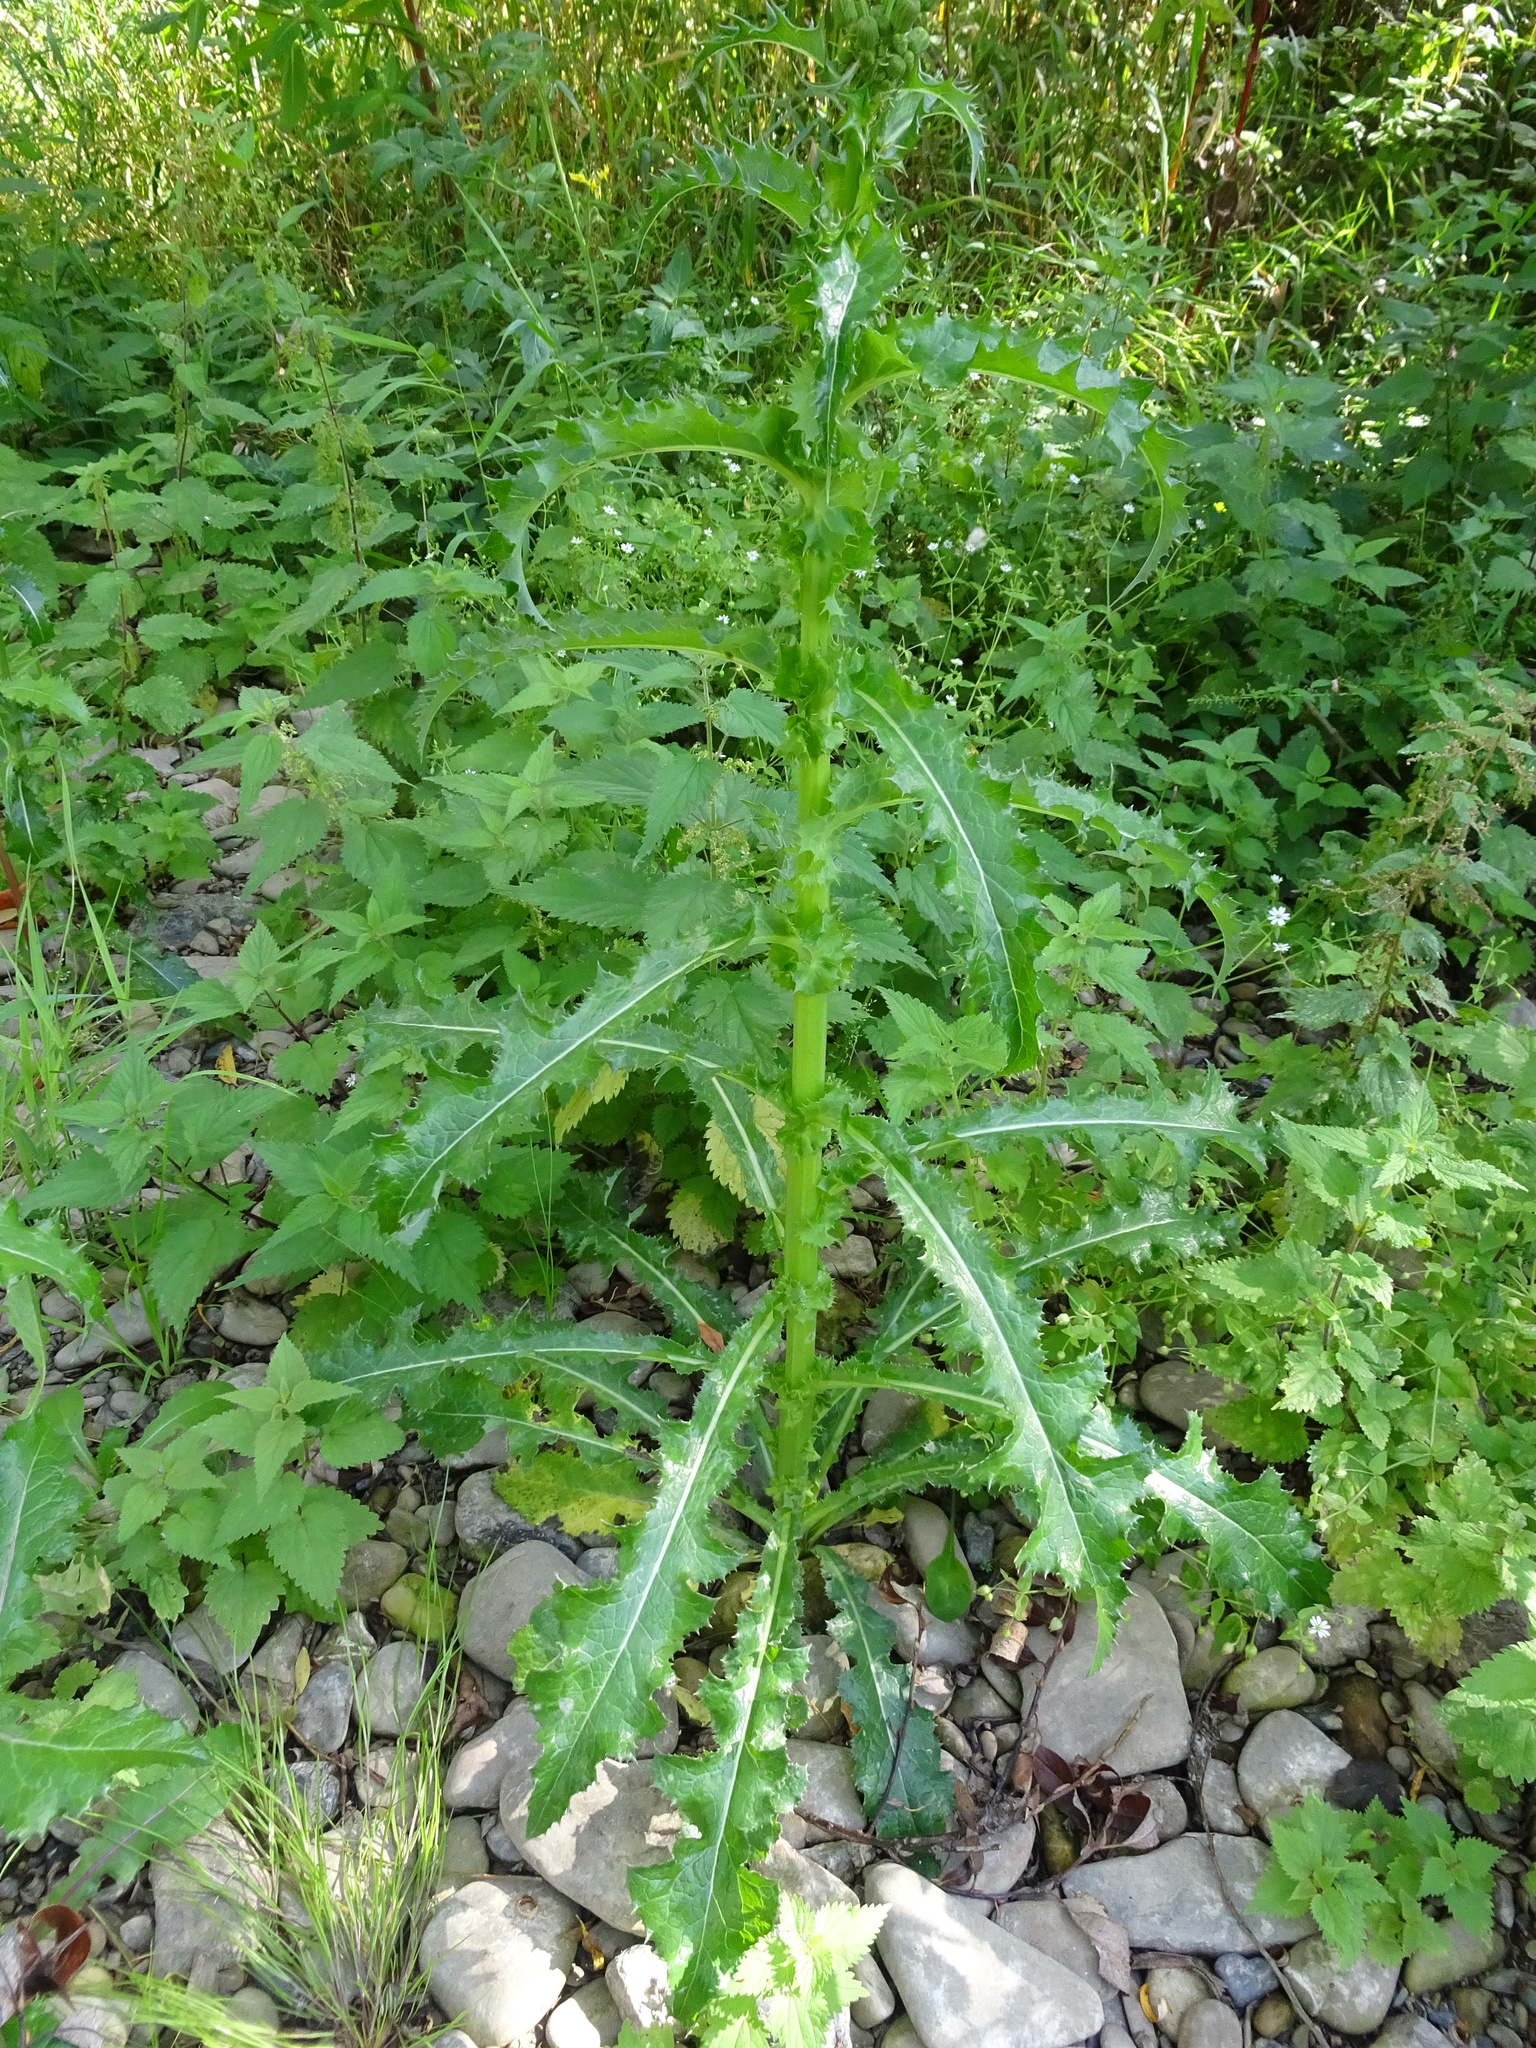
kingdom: Plantae
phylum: Tracheophyta
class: Magnoliopsida
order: Asterales
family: Asteraceae
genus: Sonchus
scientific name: Sonchus asper
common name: Prickly sow-thistle
